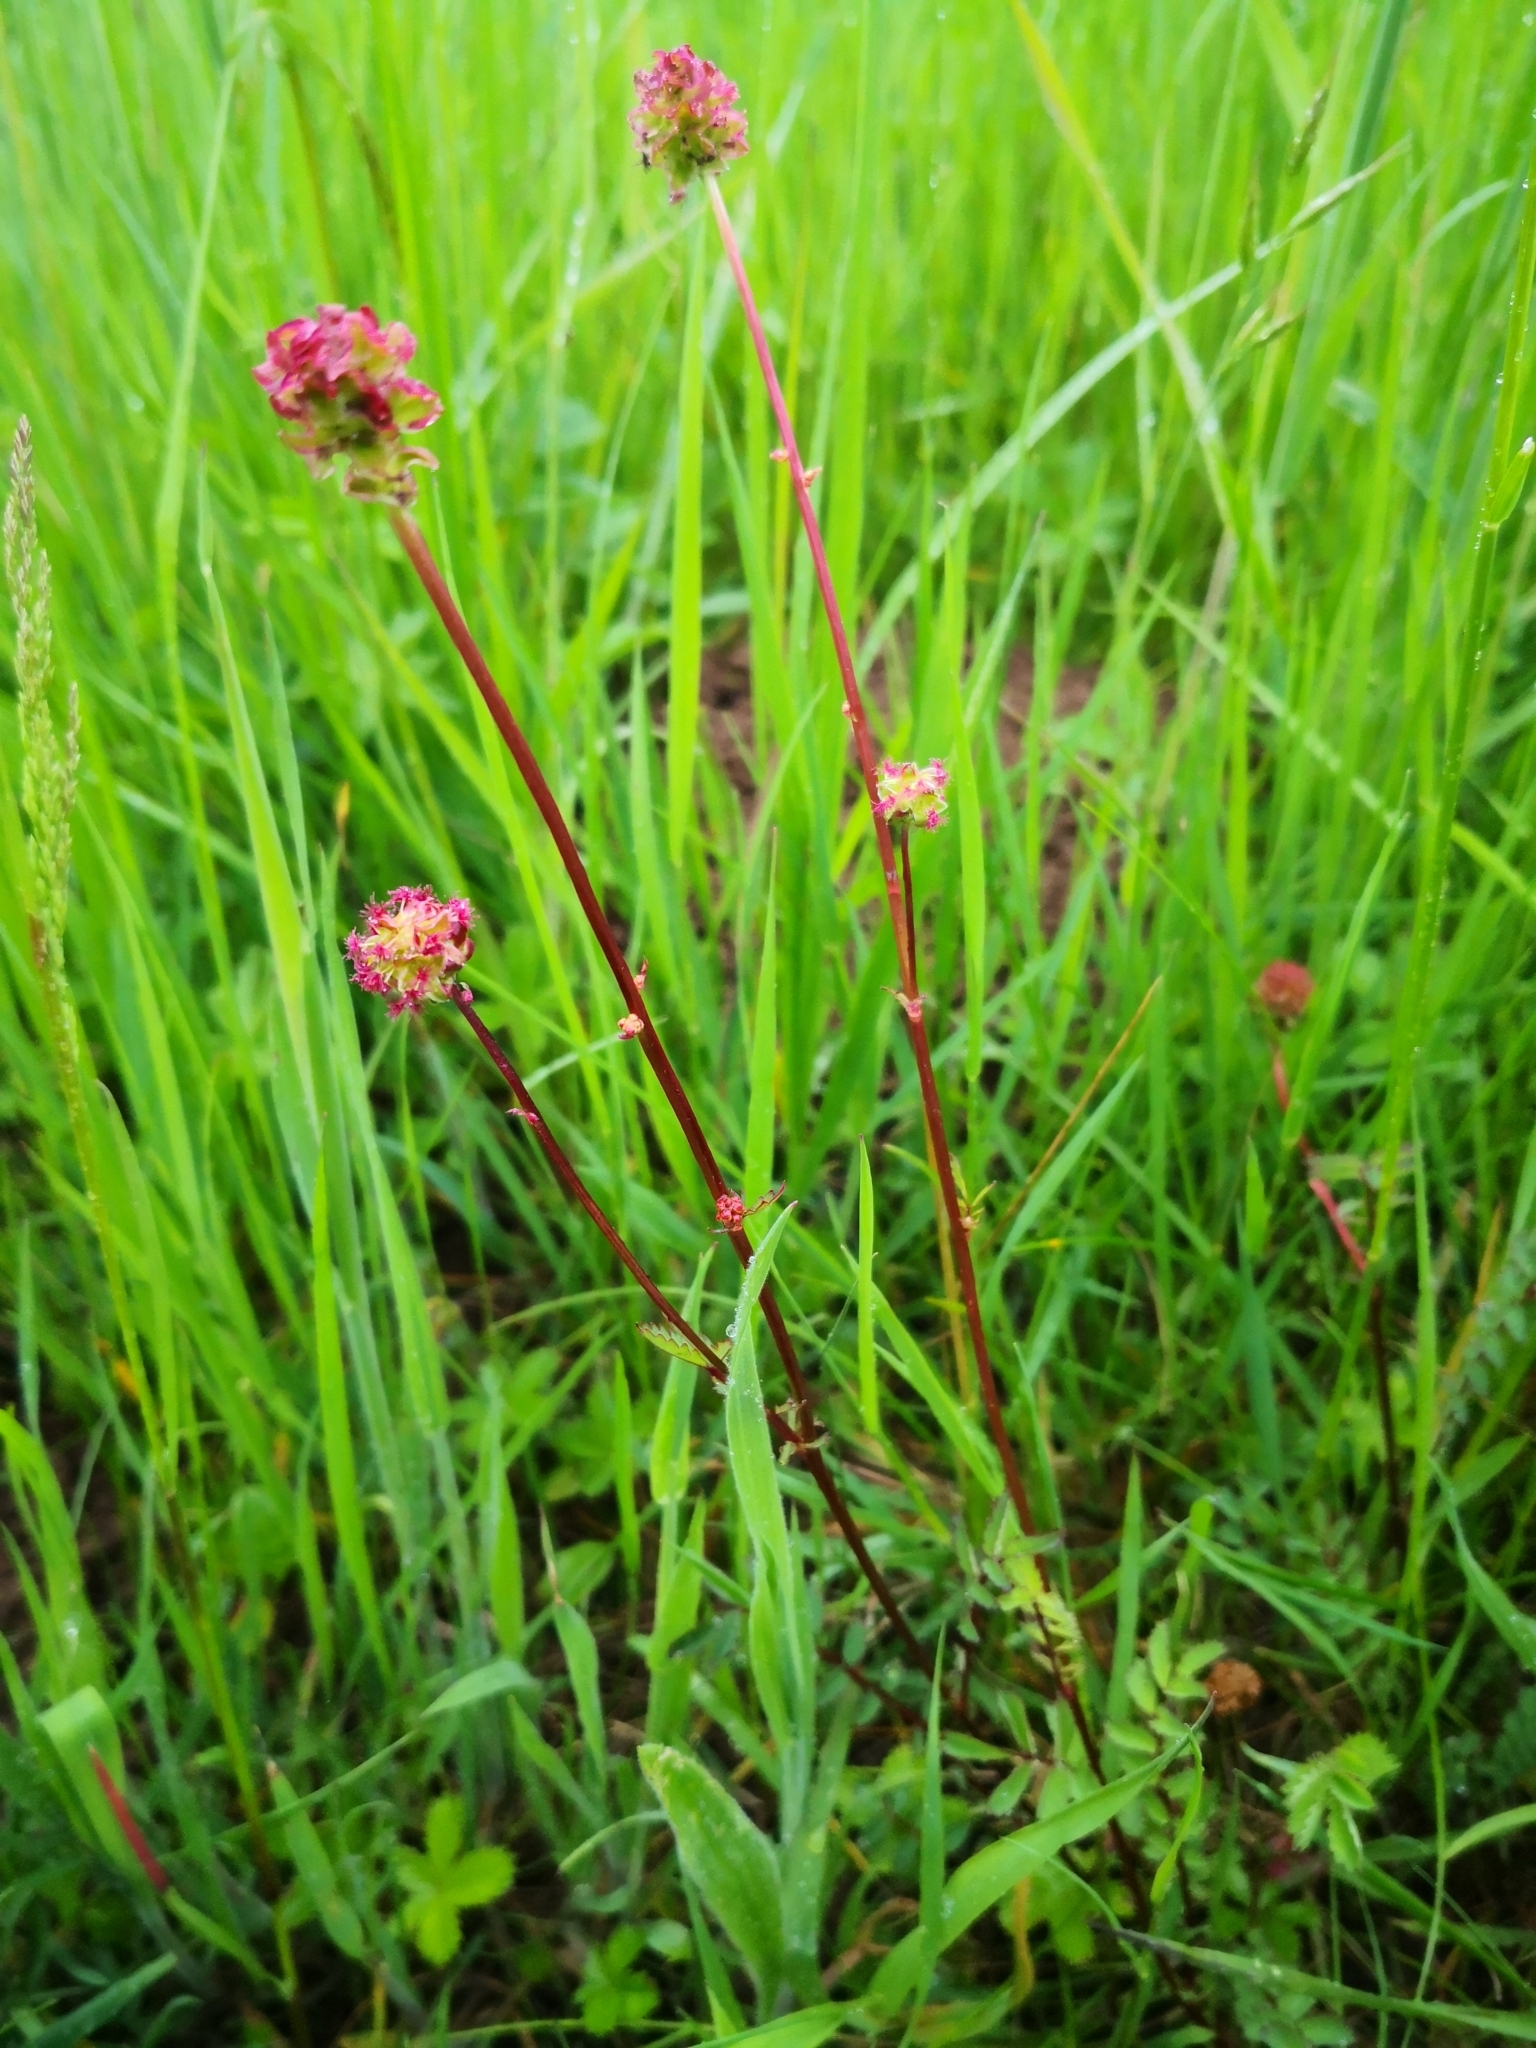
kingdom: Plantae
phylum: Tracheophyta
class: Magnoliopsida
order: Rosales
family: Rosaceae
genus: Poterium
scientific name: Poterium sanguisorba
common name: Salad burnet
